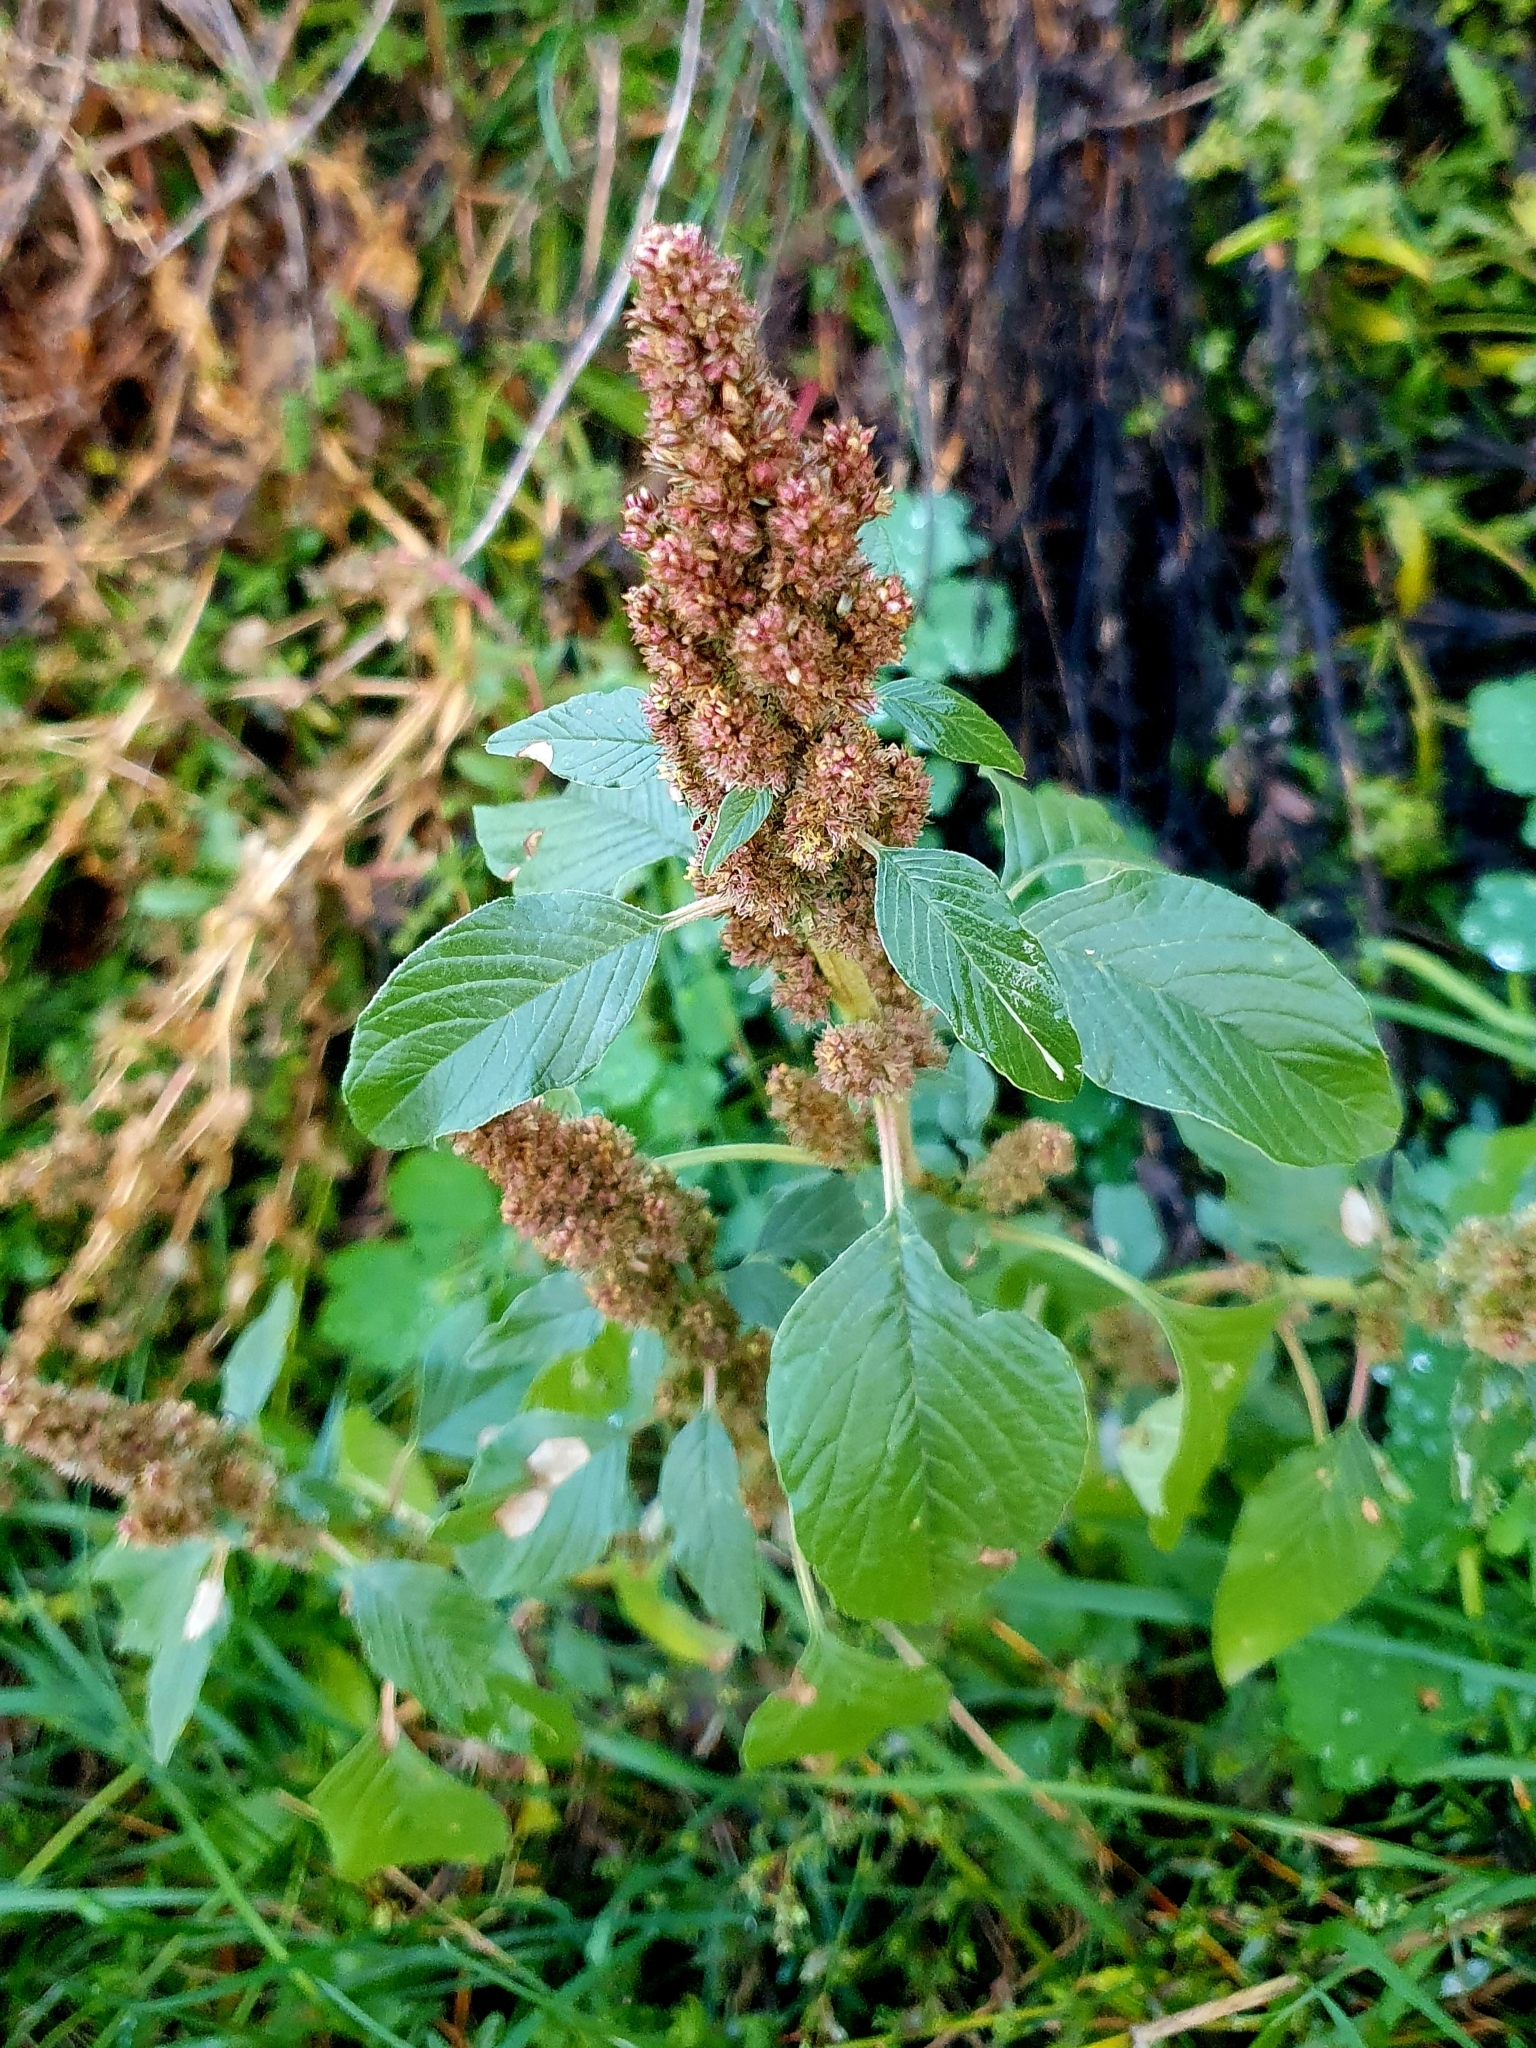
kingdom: Plantae
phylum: Tracheophyta
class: Magnoliopsida
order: Caryophyllales
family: Amaranthaceae
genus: Amaranthus
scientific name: Amaranthus retroflexus
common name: Redroot amaranth
